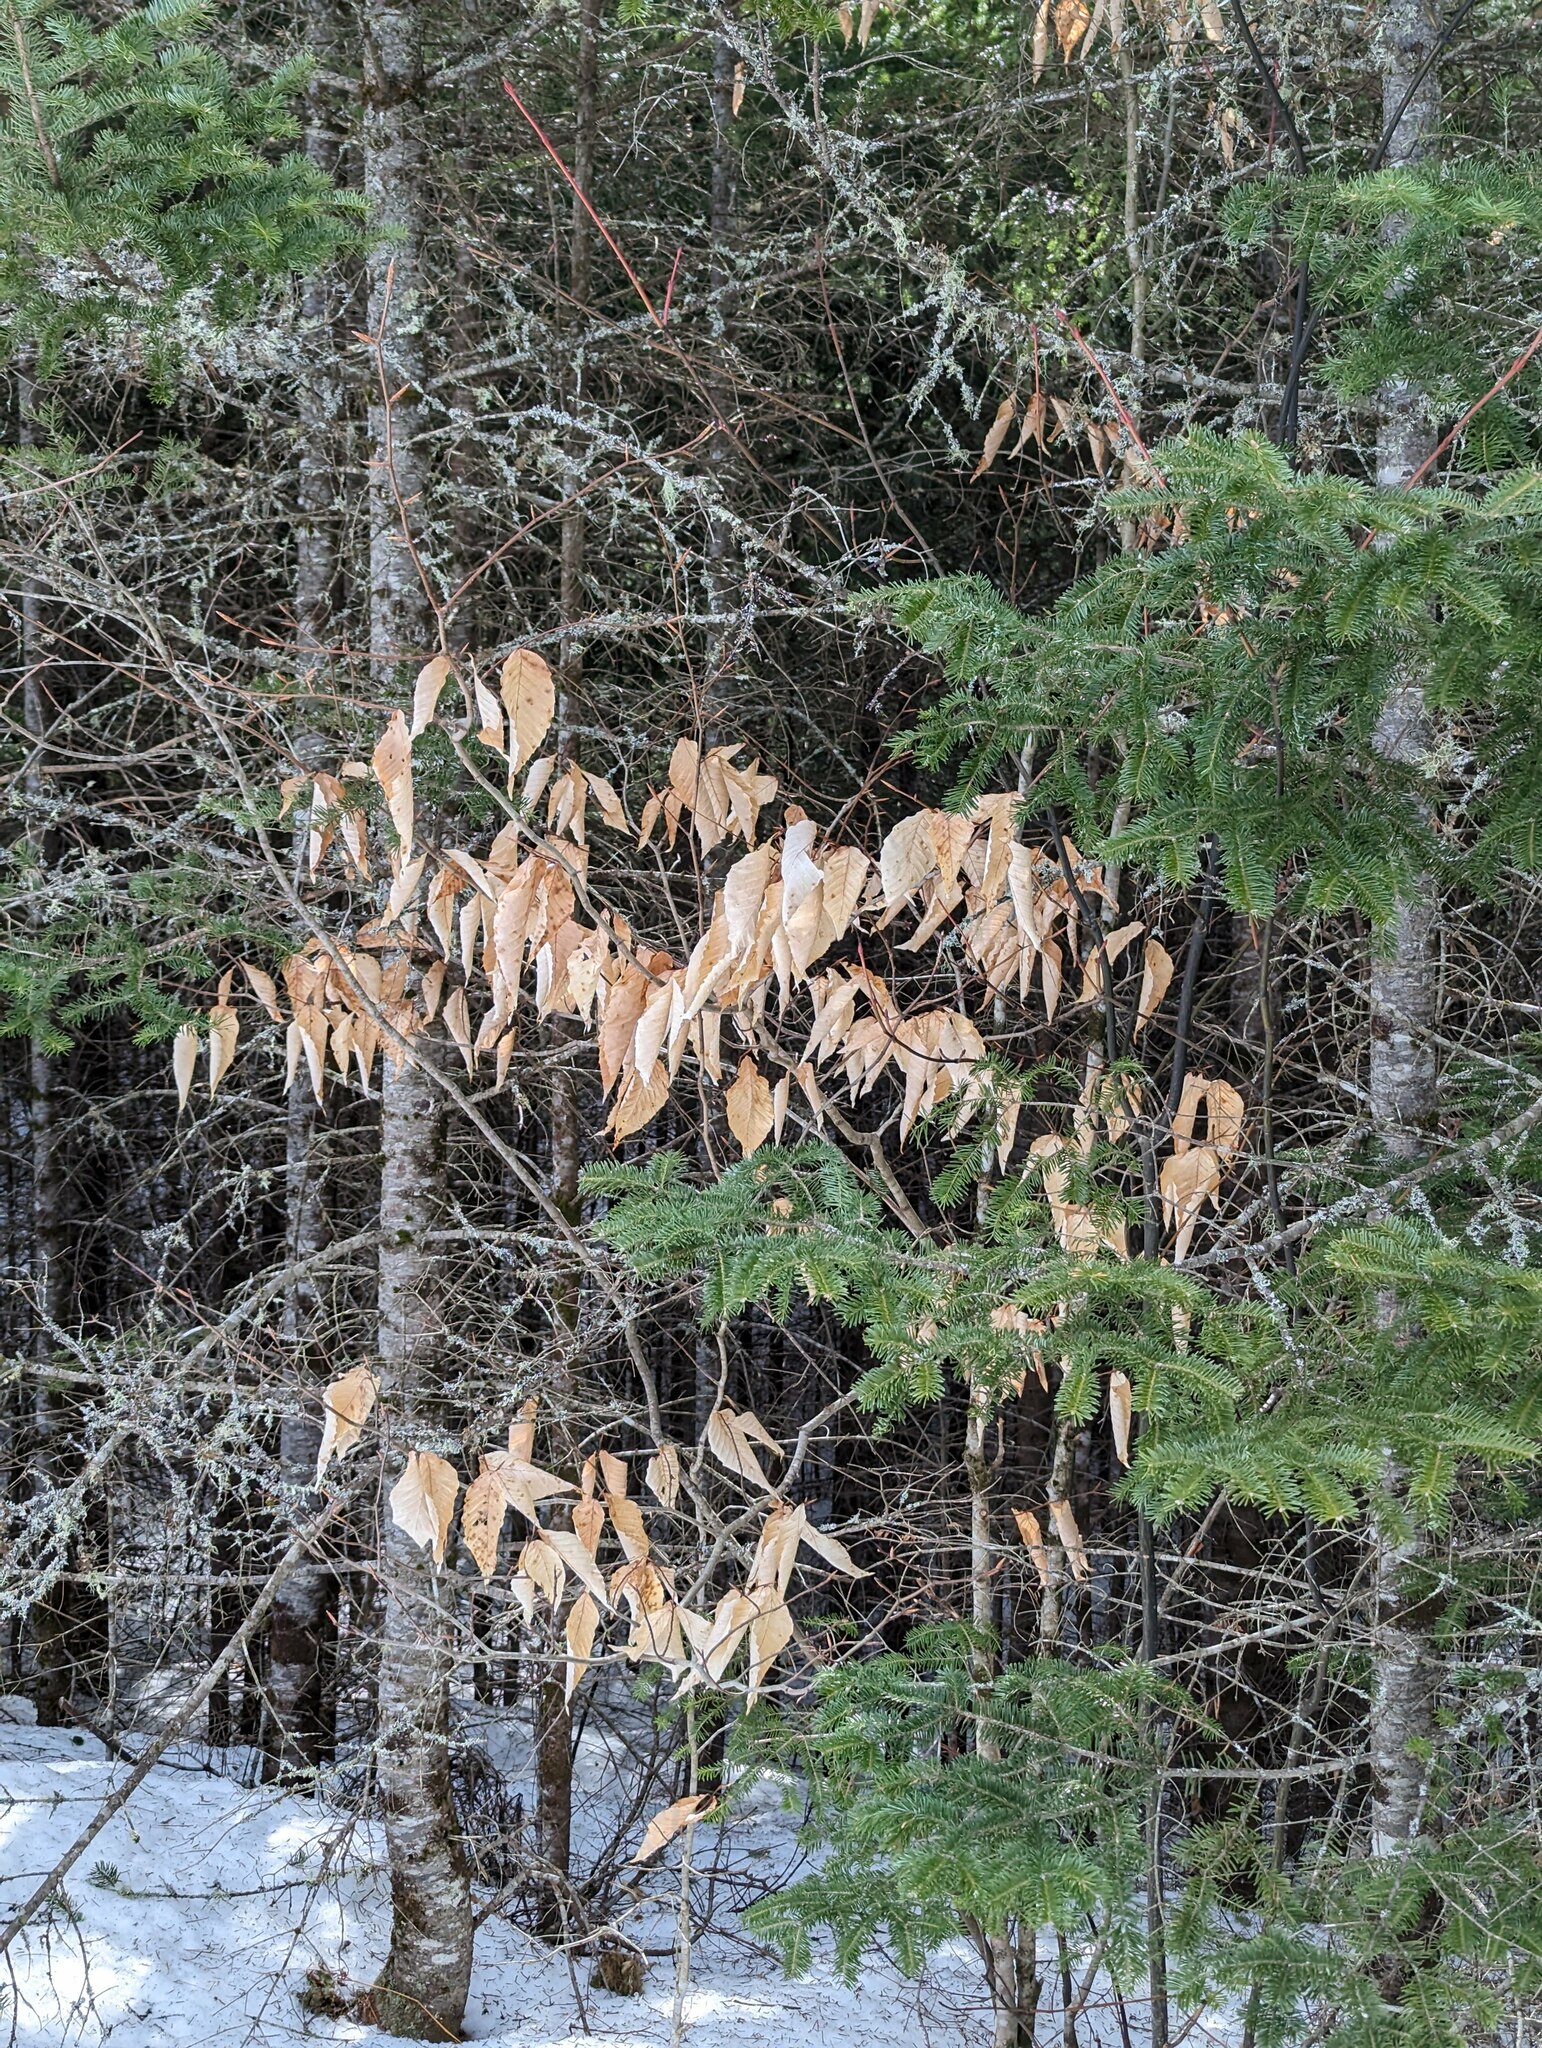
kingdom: Plantae
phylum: Tracheophyta
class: Magnoliopsida
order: Fagales
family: Fagaceae
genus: Fagus
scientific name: Fagus grandifolia
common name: American beech
